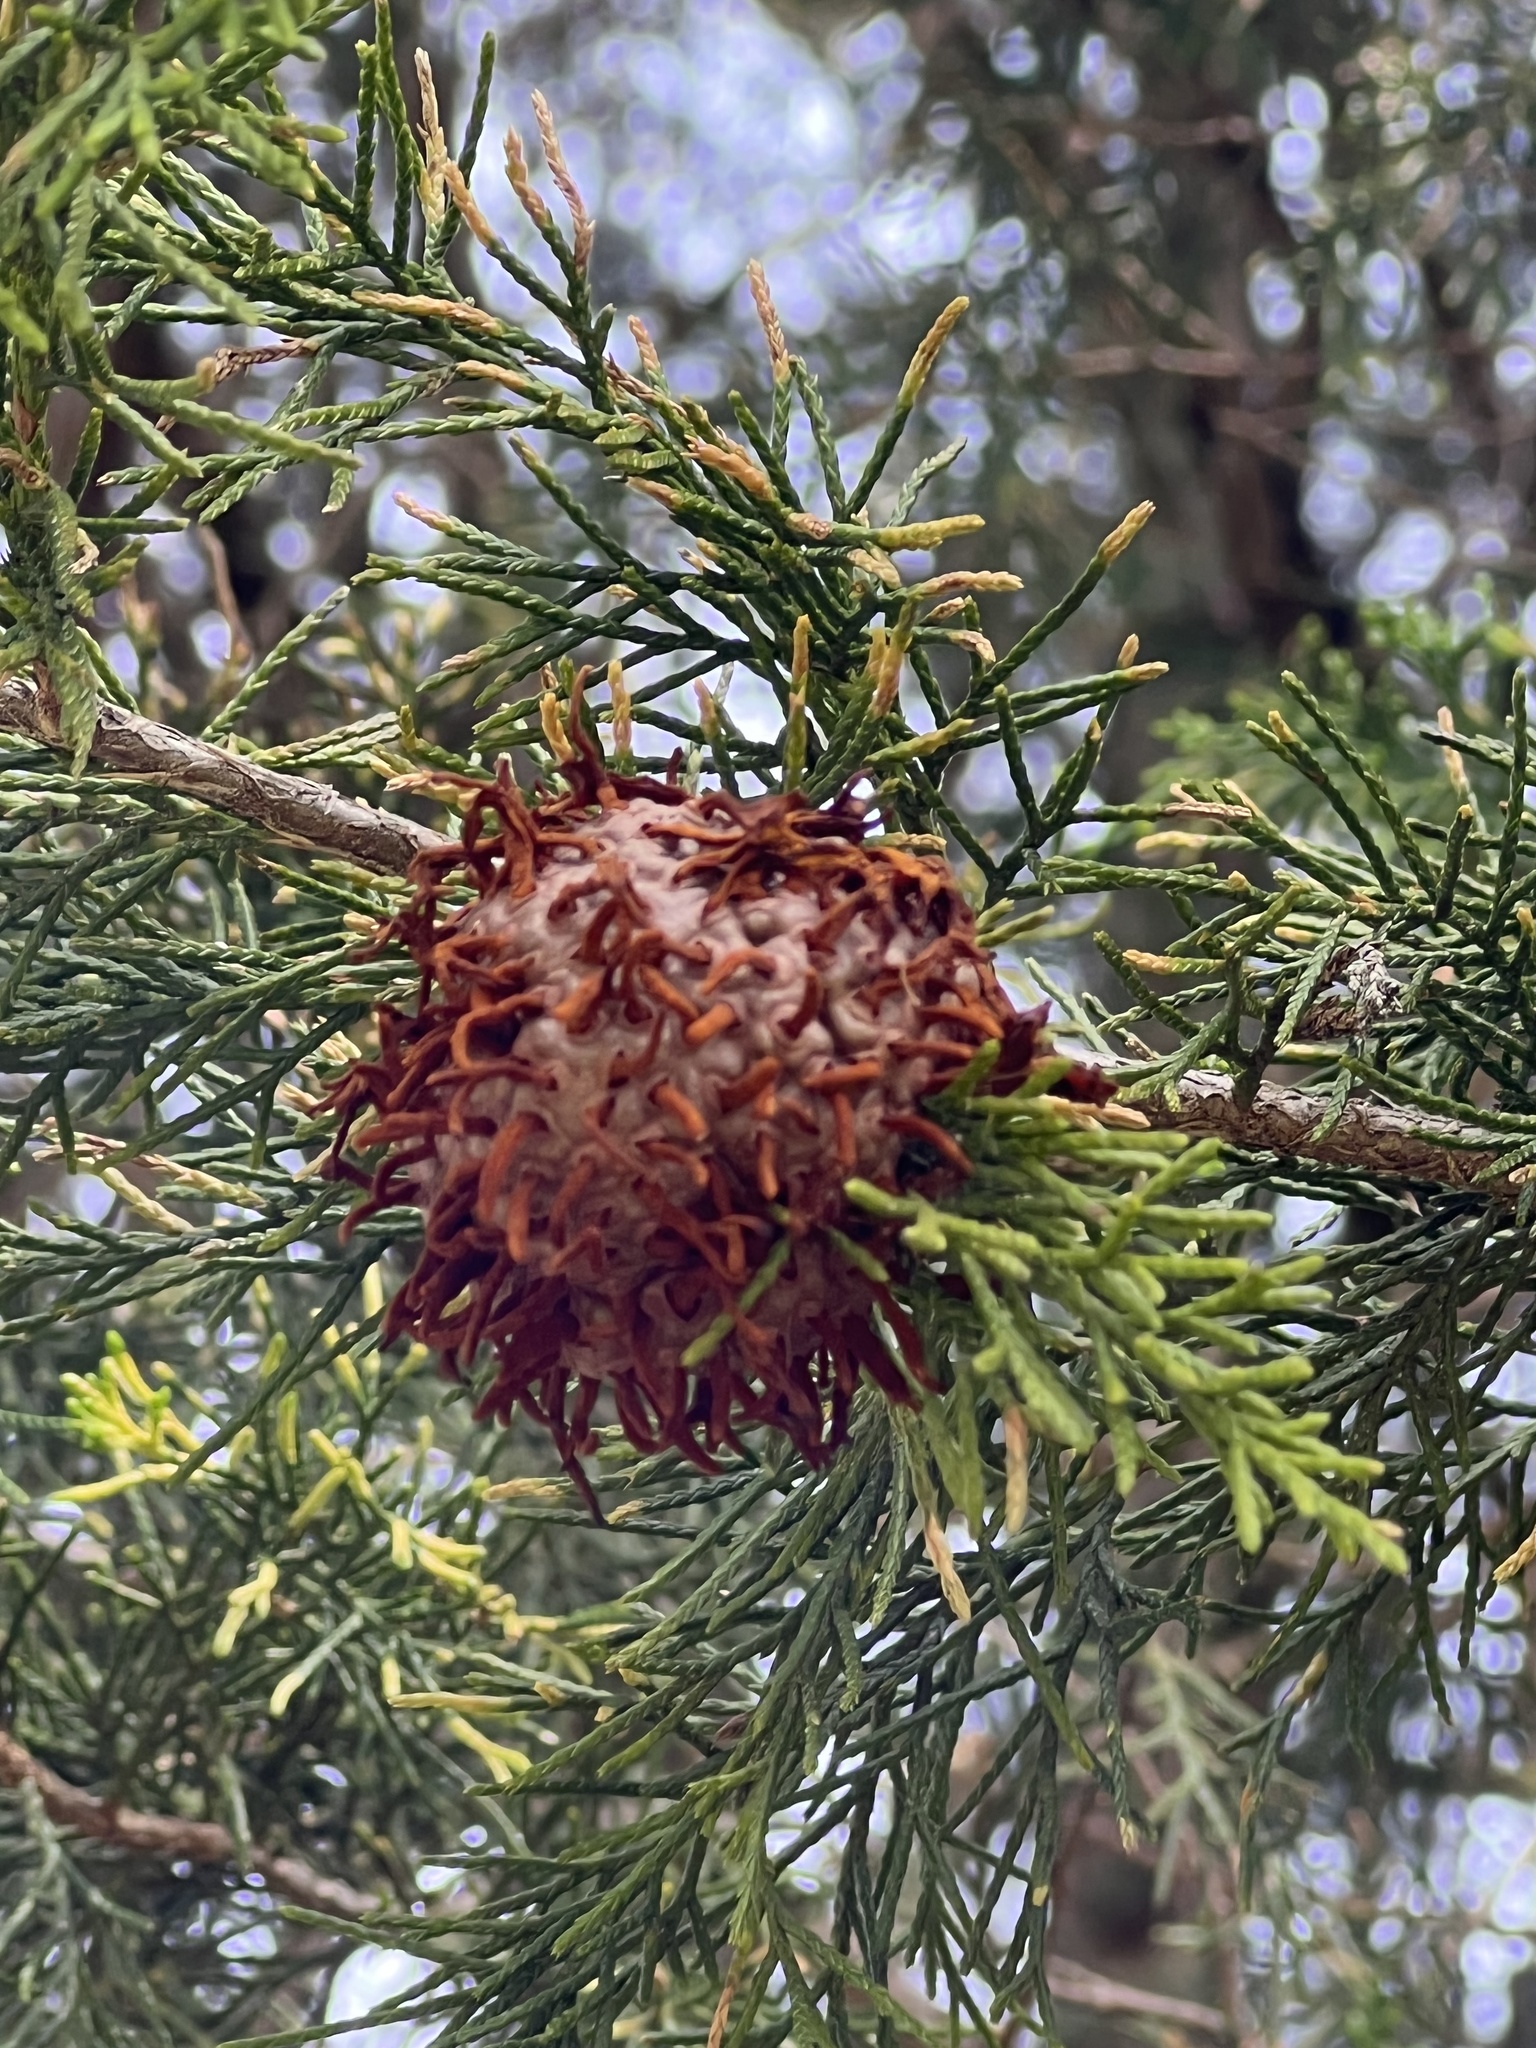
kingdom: Fungi
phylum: Basidiomycota
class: Pucciniomycetes
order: Pucciniales
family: Gymnosporangiaceae
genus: Gymnosporangium
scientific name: Gymnosporangium juniperi-virginianae
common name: Juniper-apple rust
